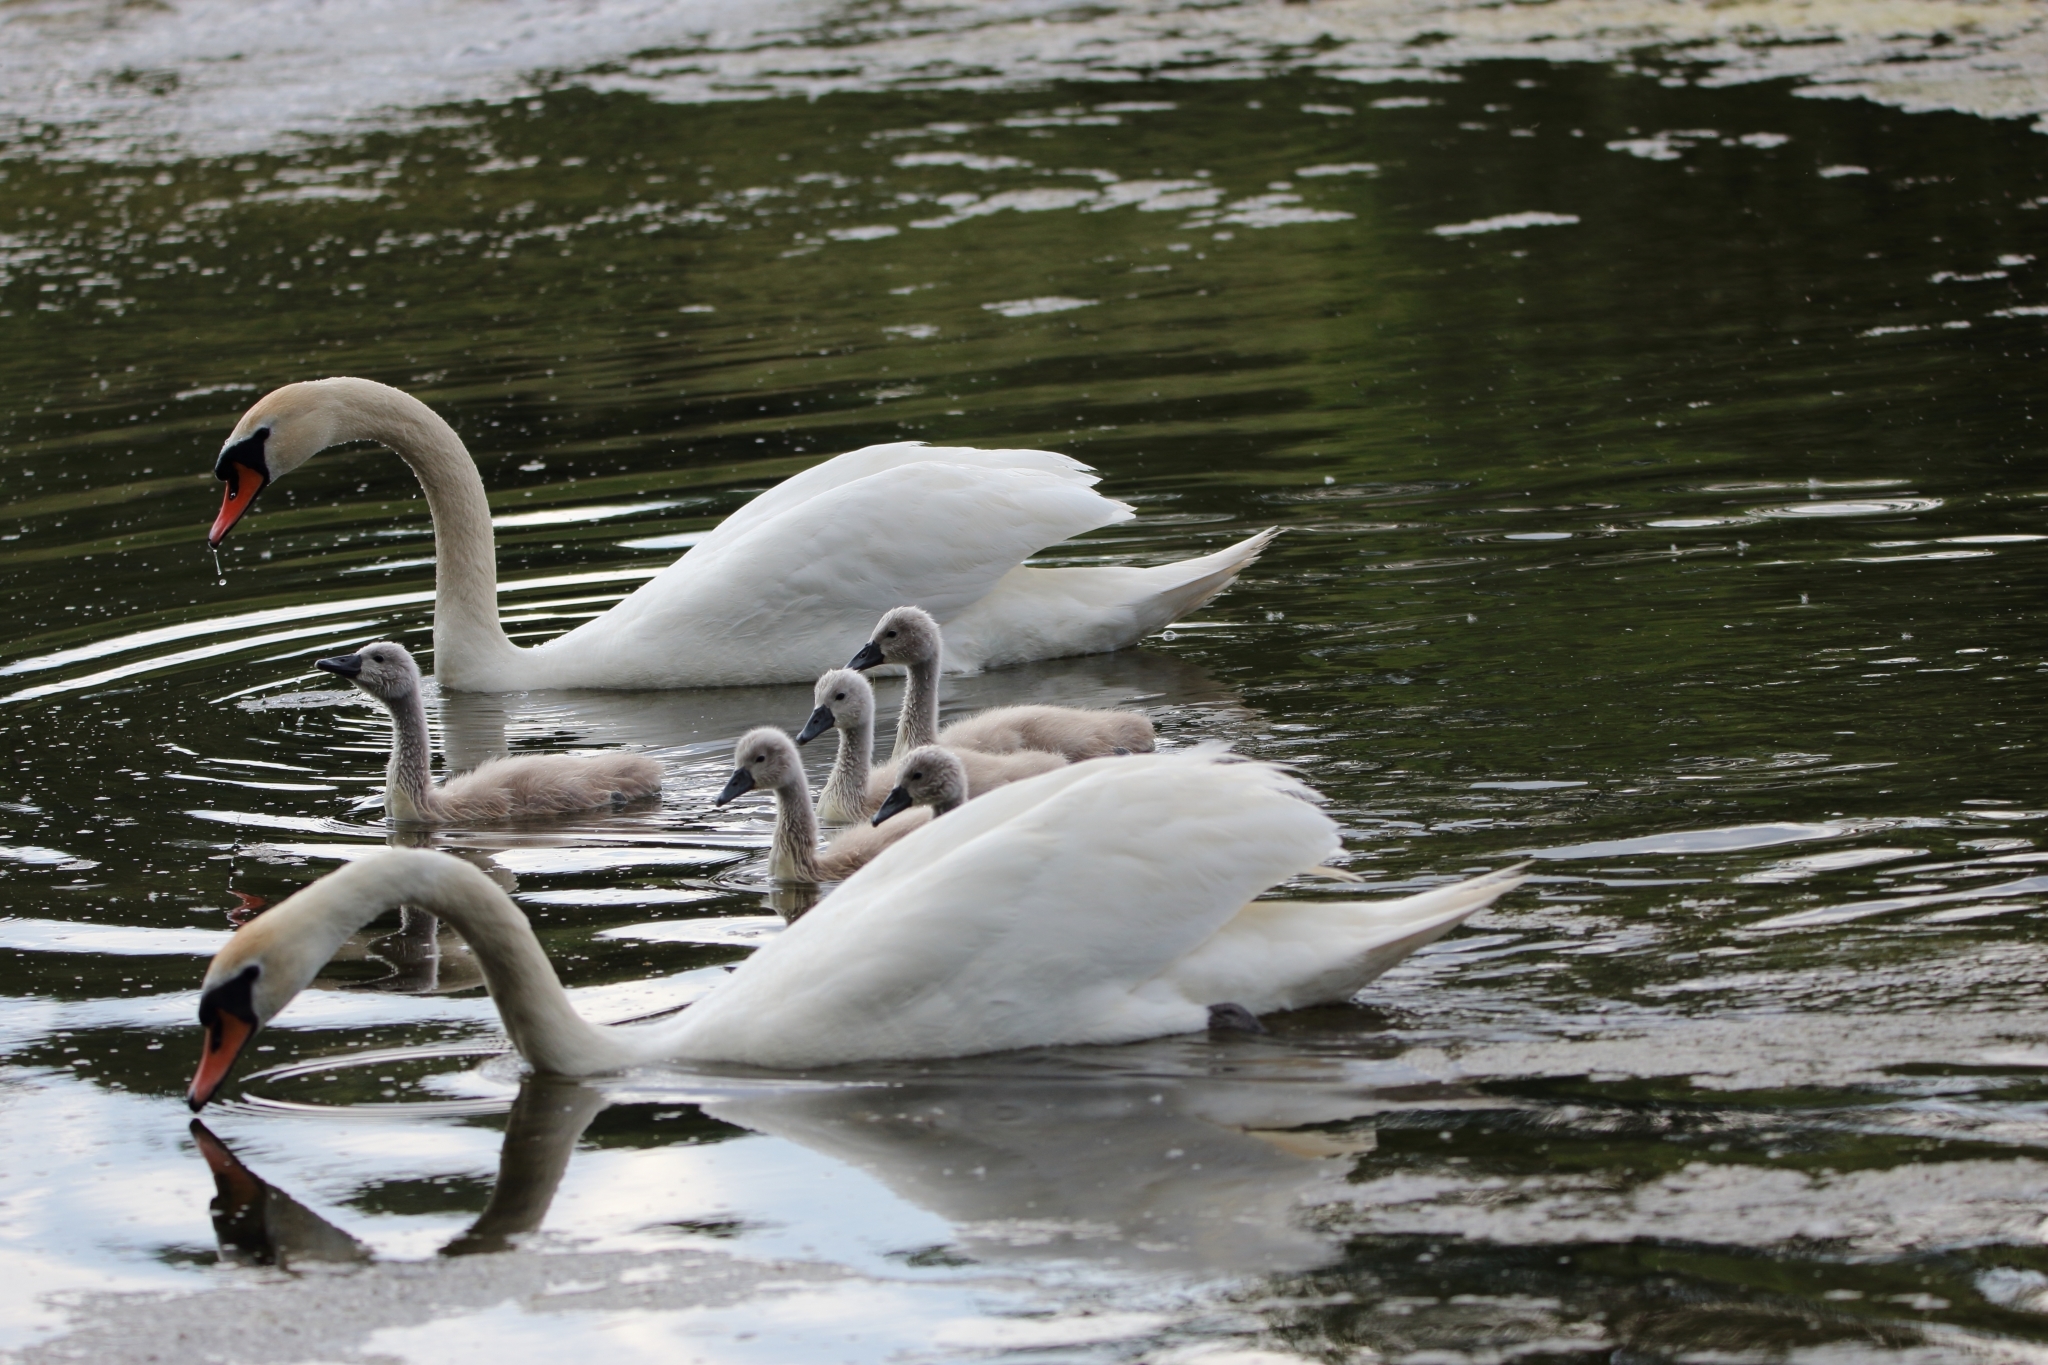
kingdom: Animalia
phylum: Chordata
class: Aves
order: Anseriformes
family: Anatidae
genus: Cygnus
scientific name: Cygnus olor
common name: Mute swan
